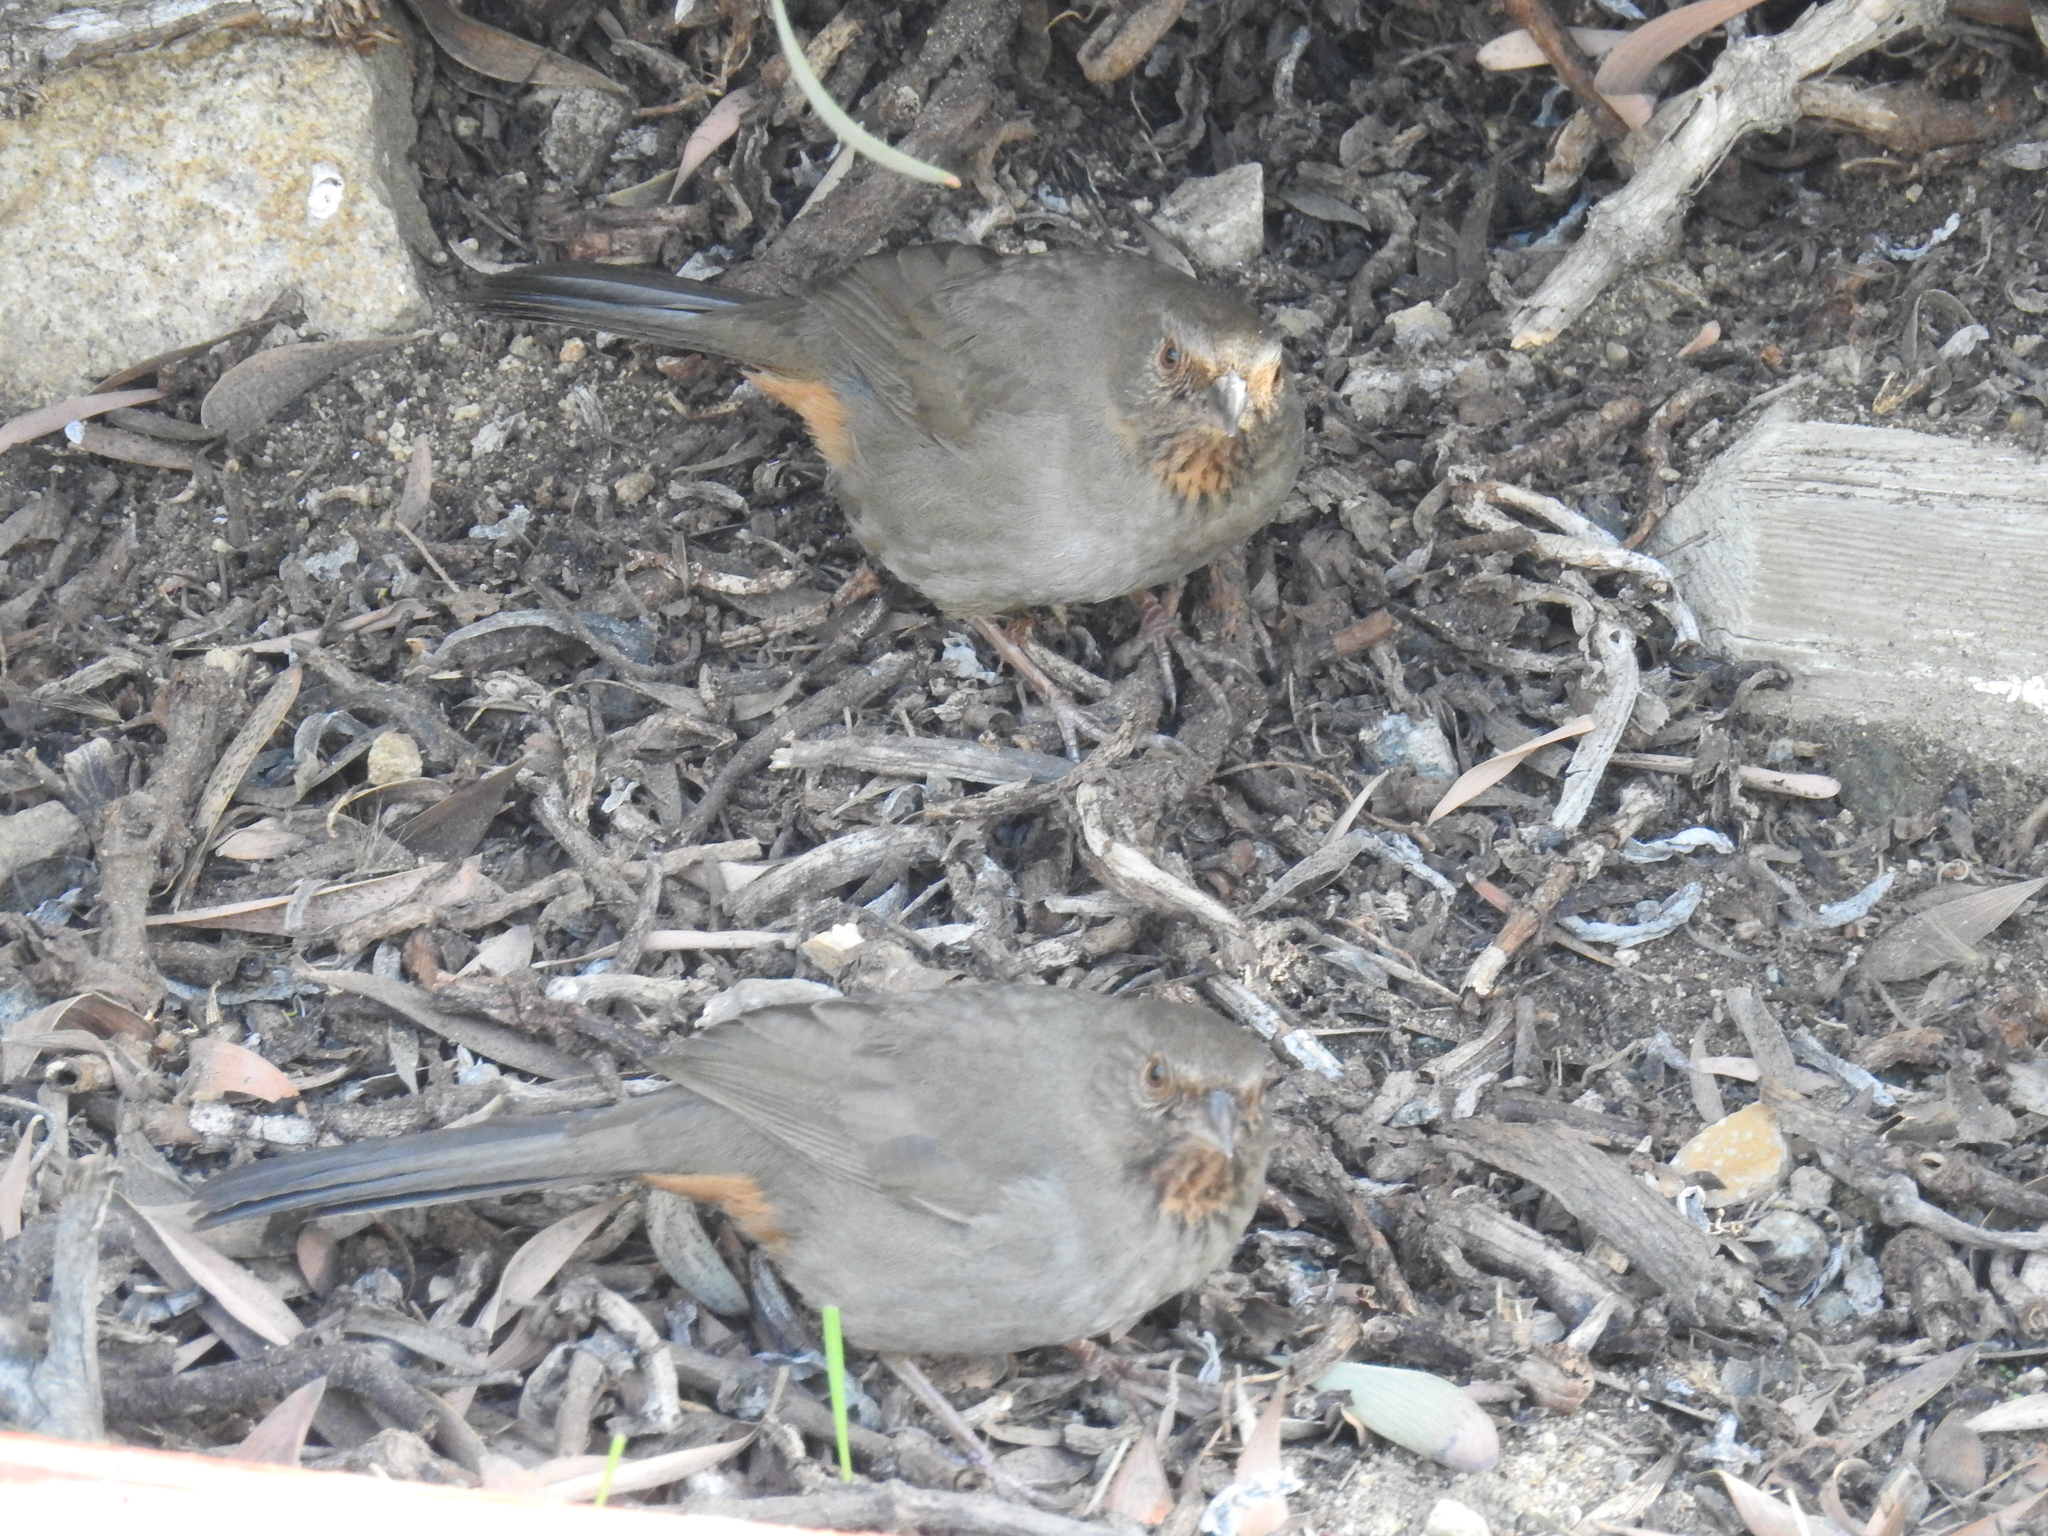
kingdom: Animalia
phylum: Chordata
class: Aves
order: Passeriformes
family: Passerellidae
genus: Melozone
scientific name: Melozone crissalis
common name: California towhee
